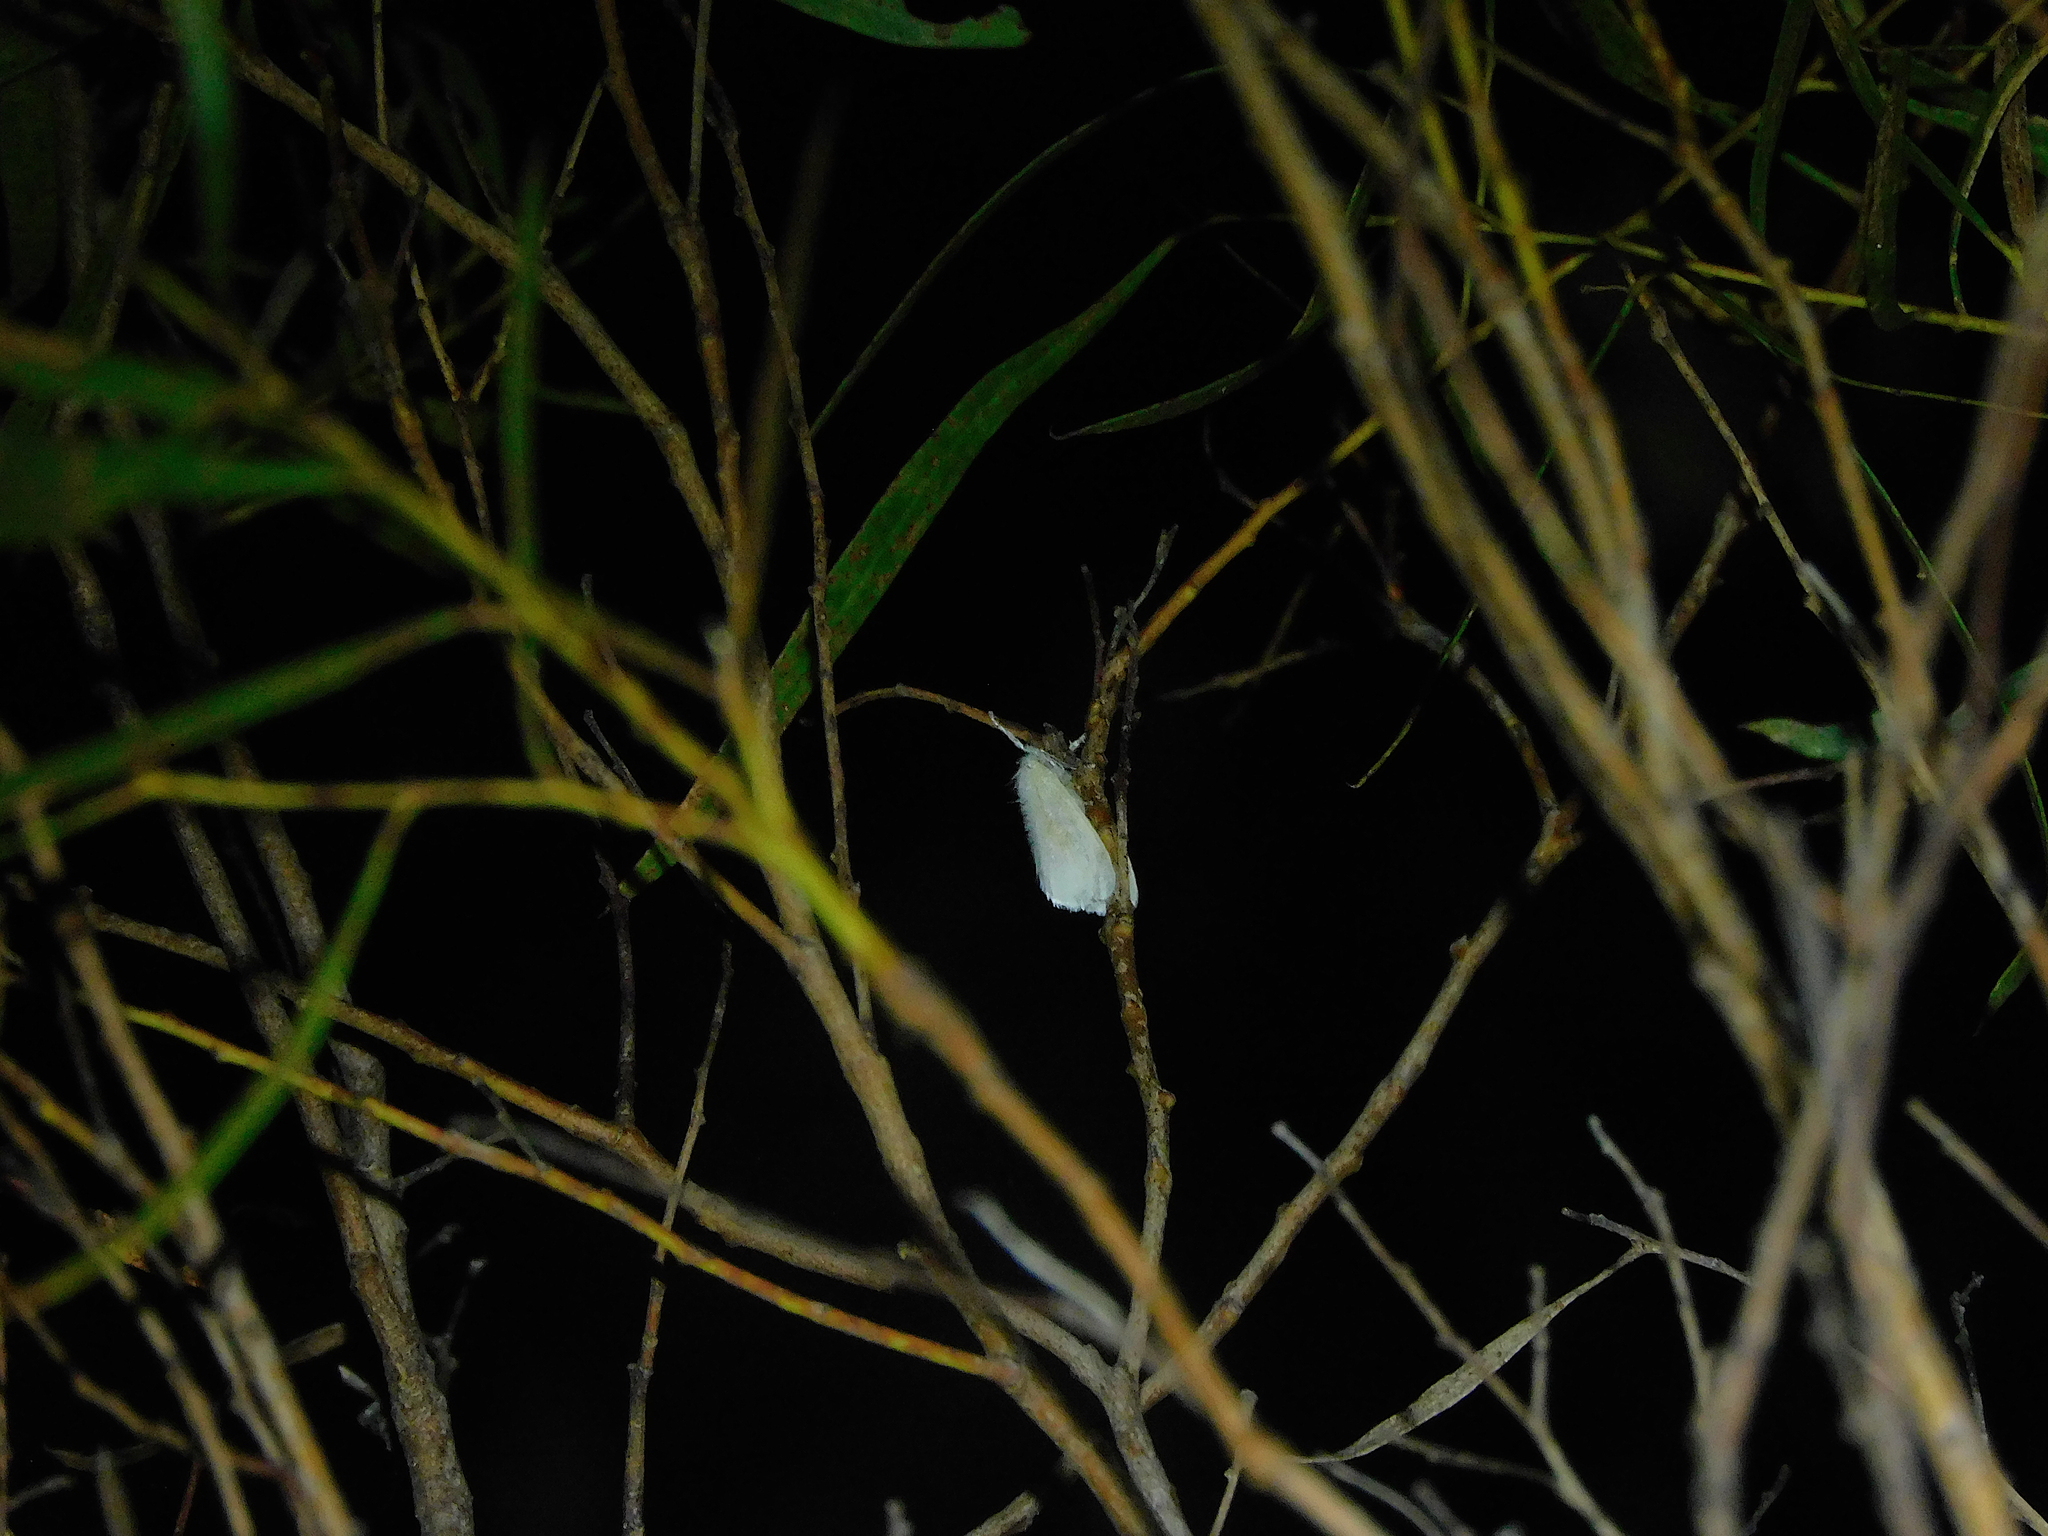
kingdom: Animalia
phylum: Arthropoda
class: Insecta
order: Lepidoptera
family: Erebidae
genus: Acyphas
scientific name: Acyphas semiochrea
